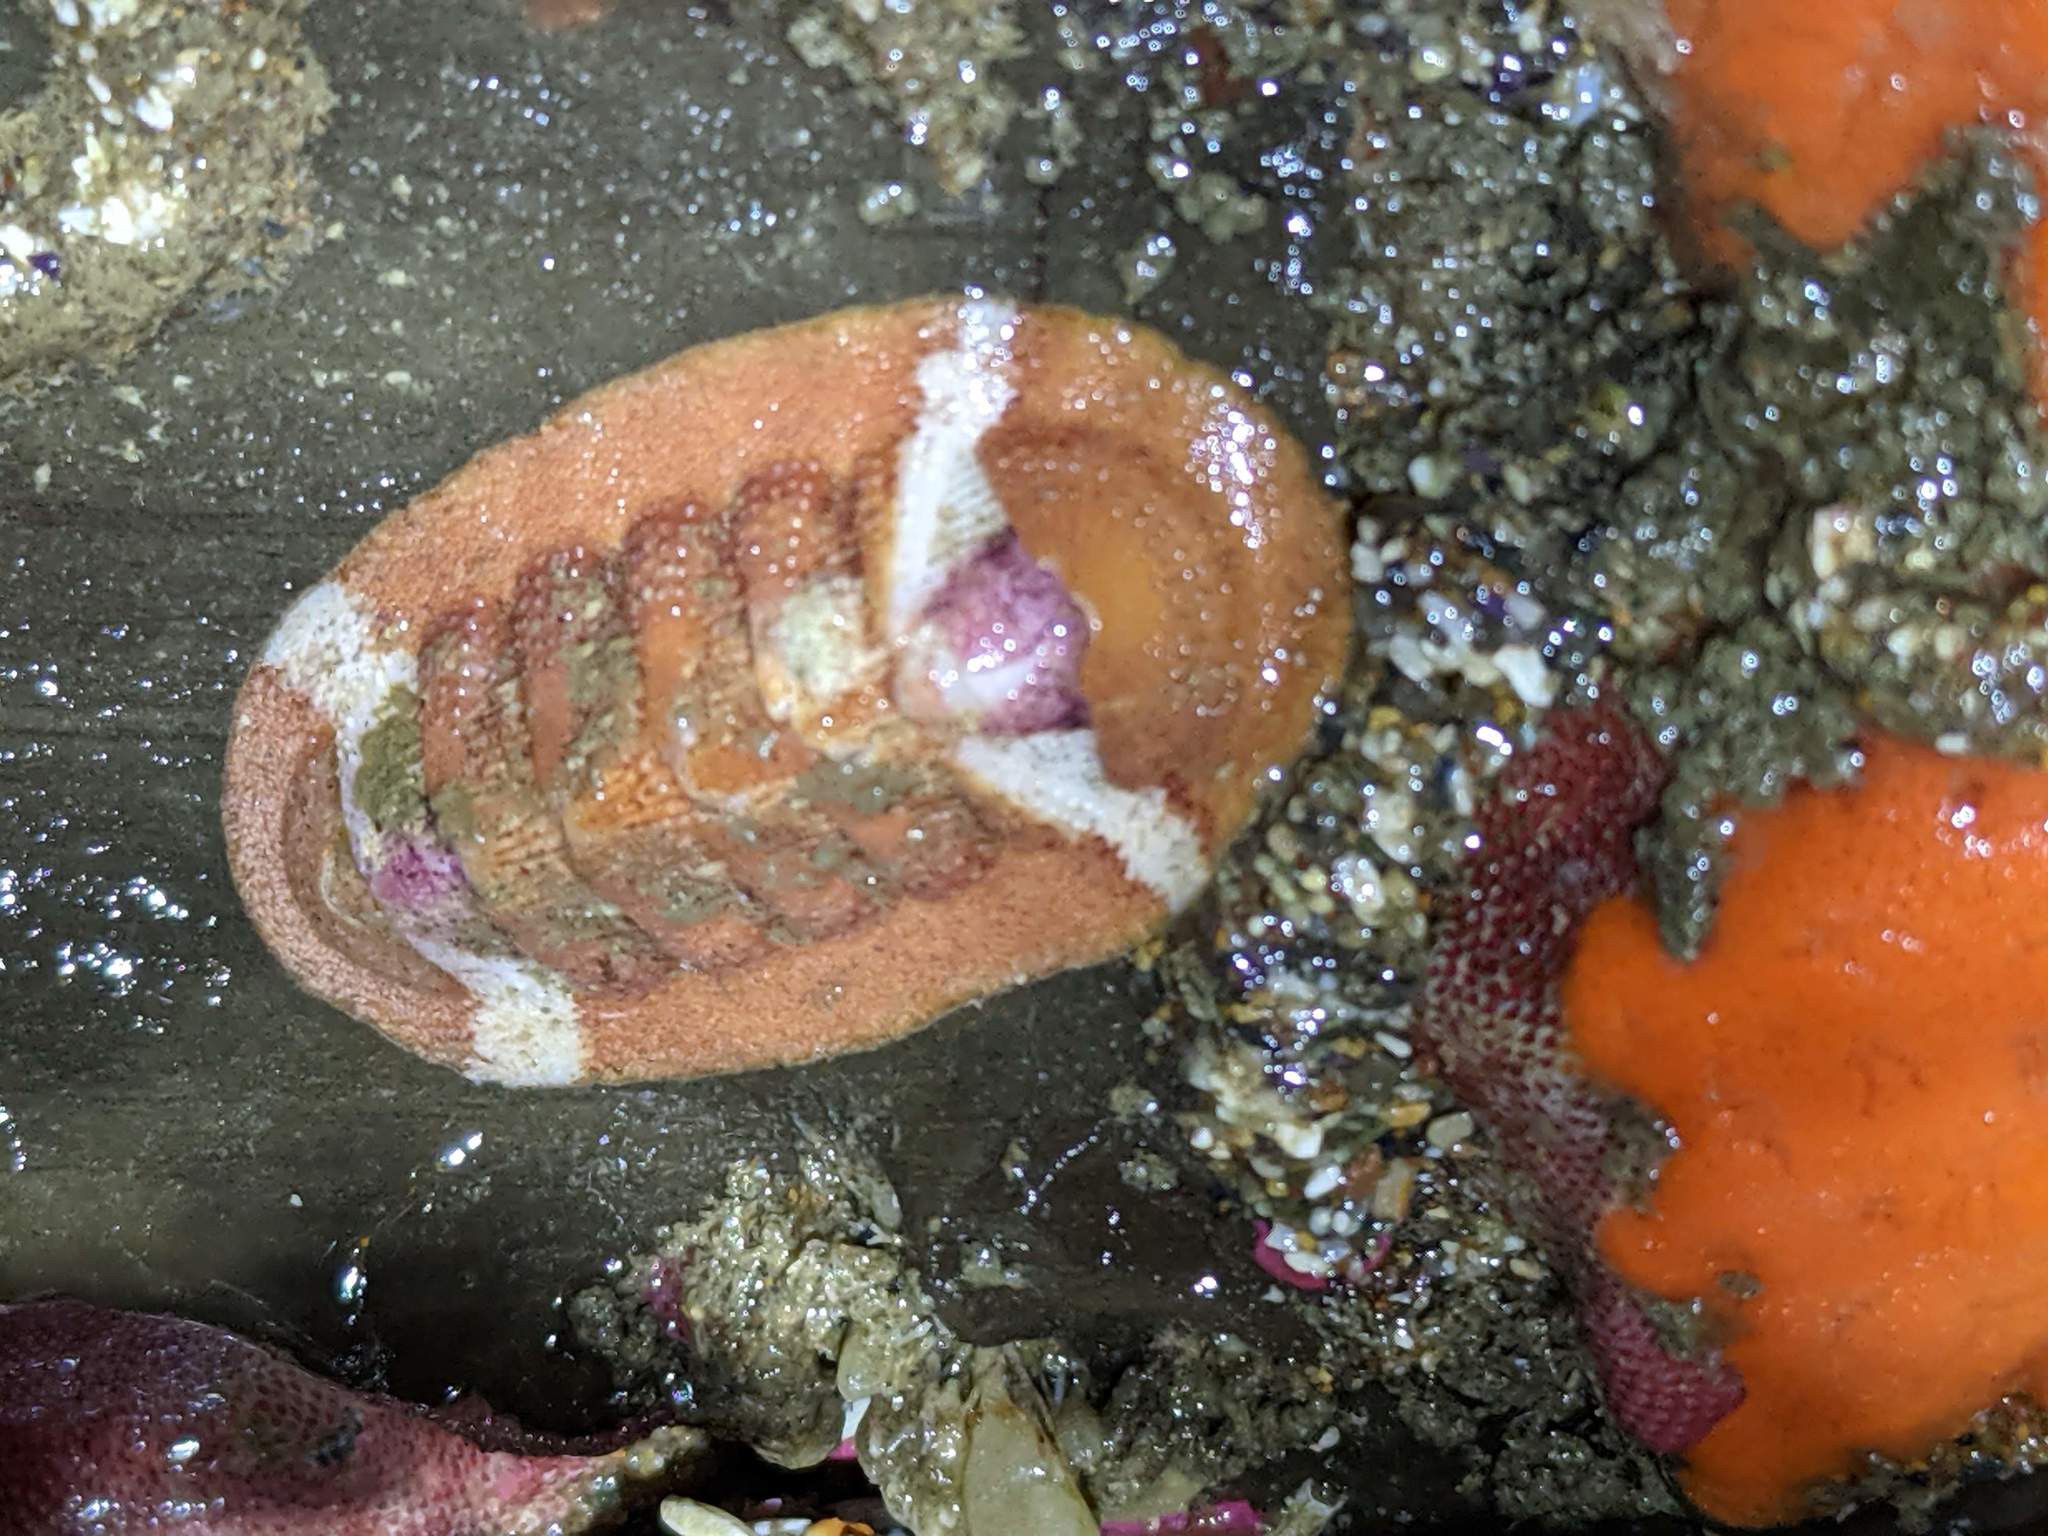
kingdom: Animalia
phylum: Mollusca
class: Polyplacophora
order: Chitonida
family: Ischnochitonidae
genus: Lepidozona
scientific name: Lepidozona mertensii
